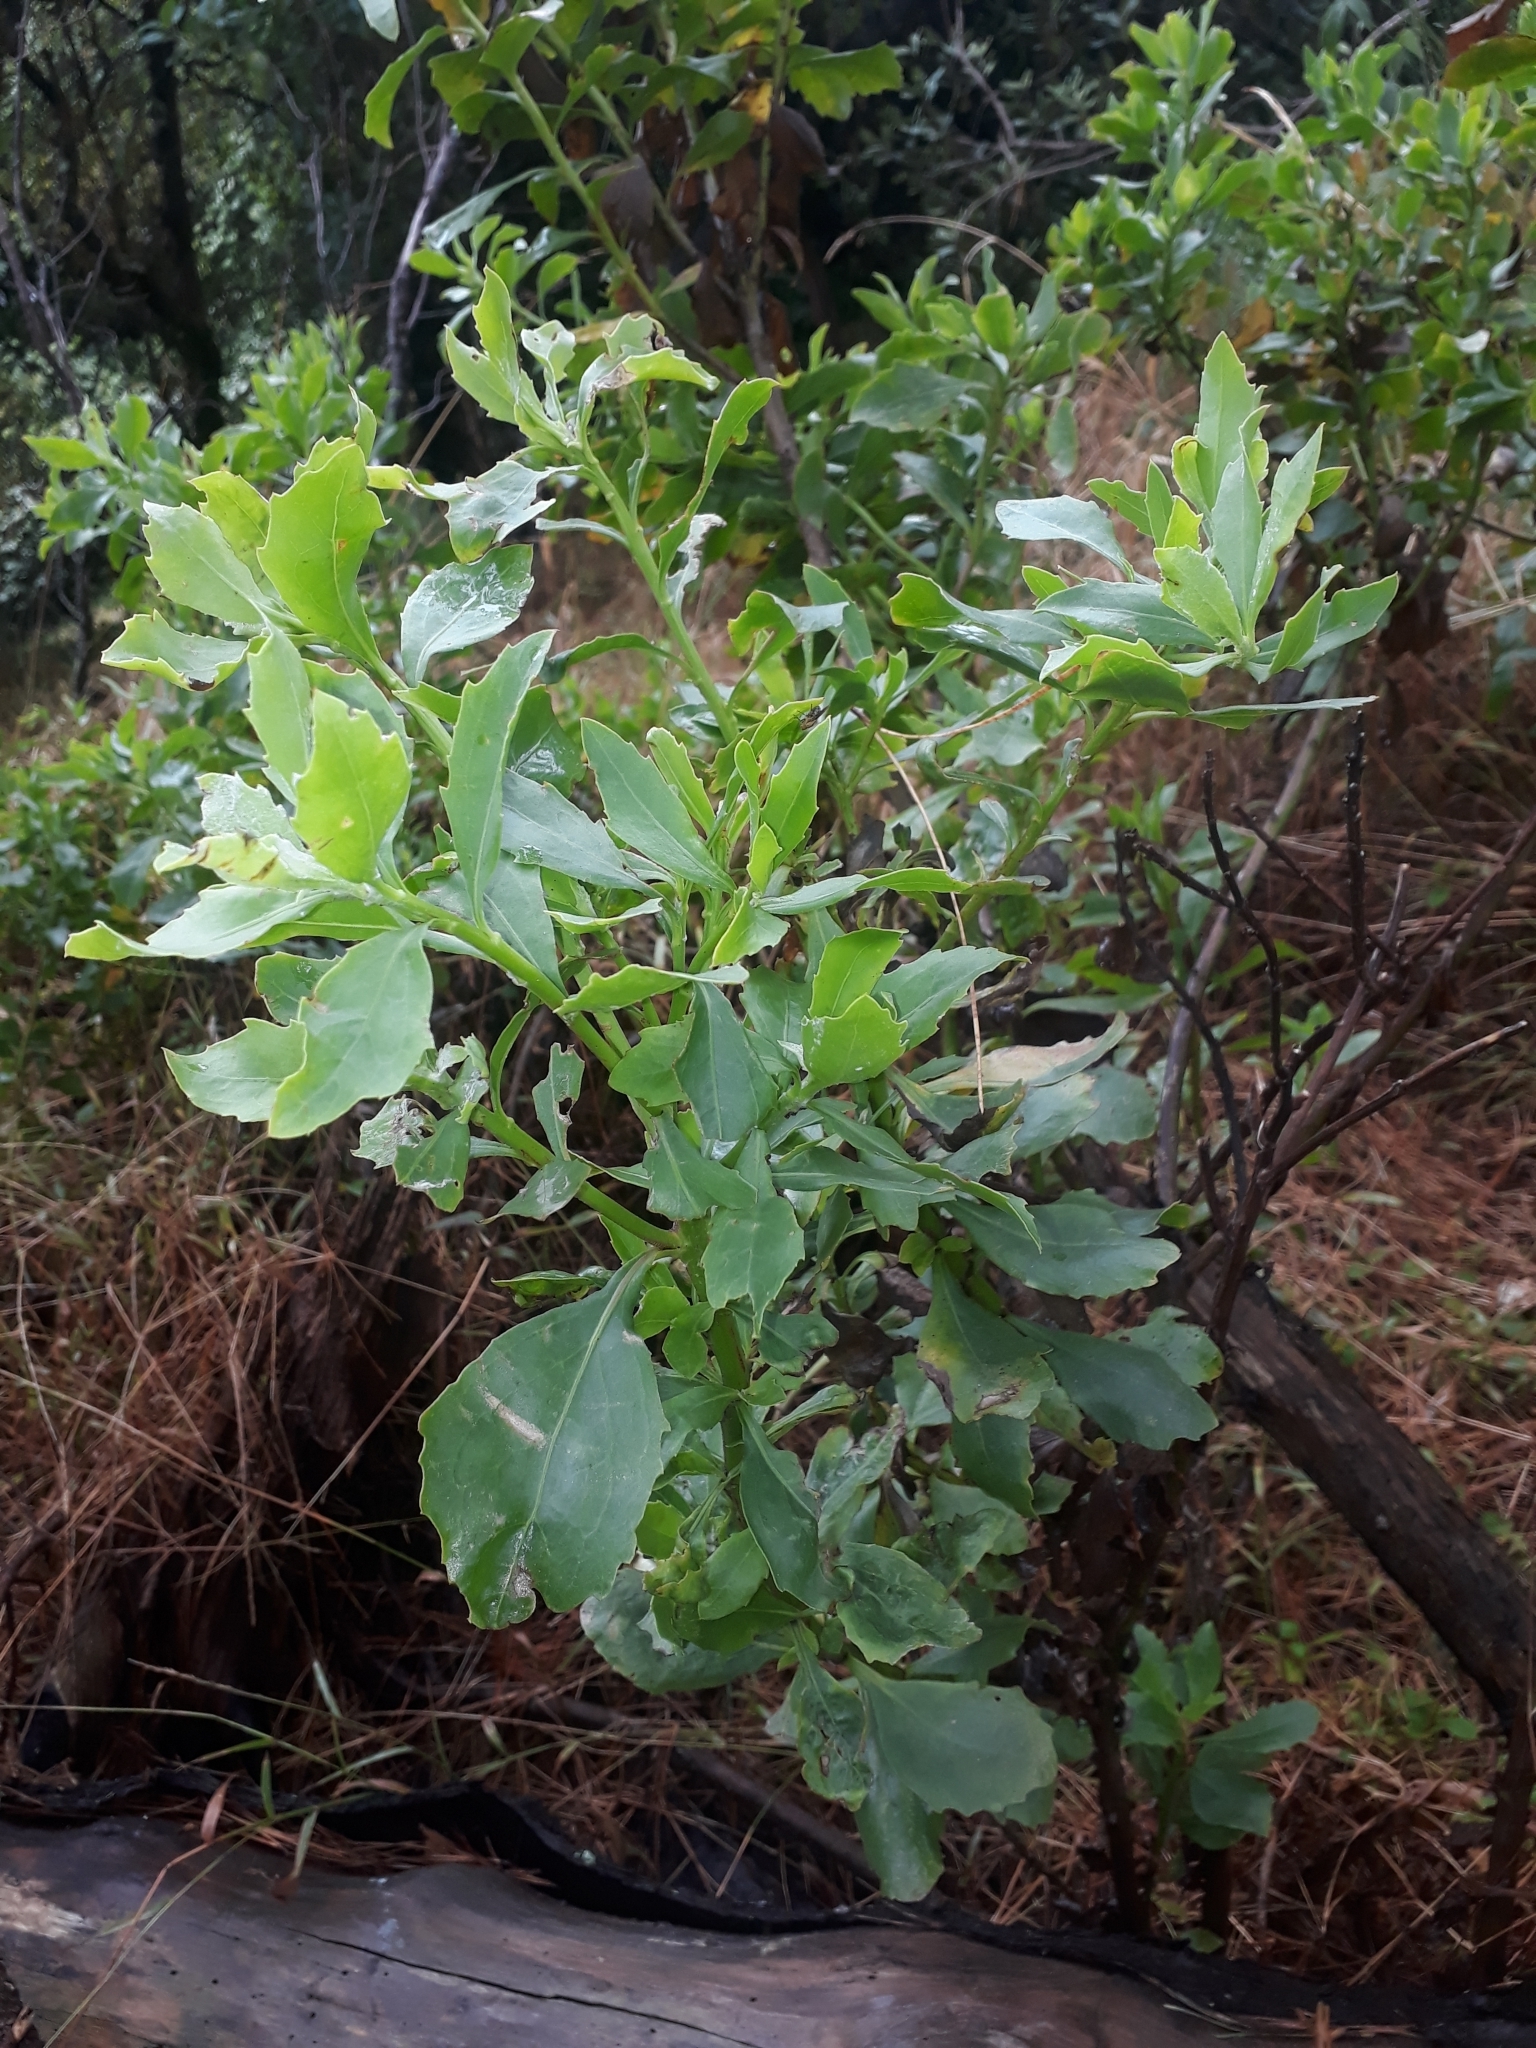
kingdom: Plantae
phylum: Tracheophyta
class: Magnoliopsida
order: Asterales
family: Asteraceae
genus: Osteospermum
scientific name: Osteospermum moniliferum
